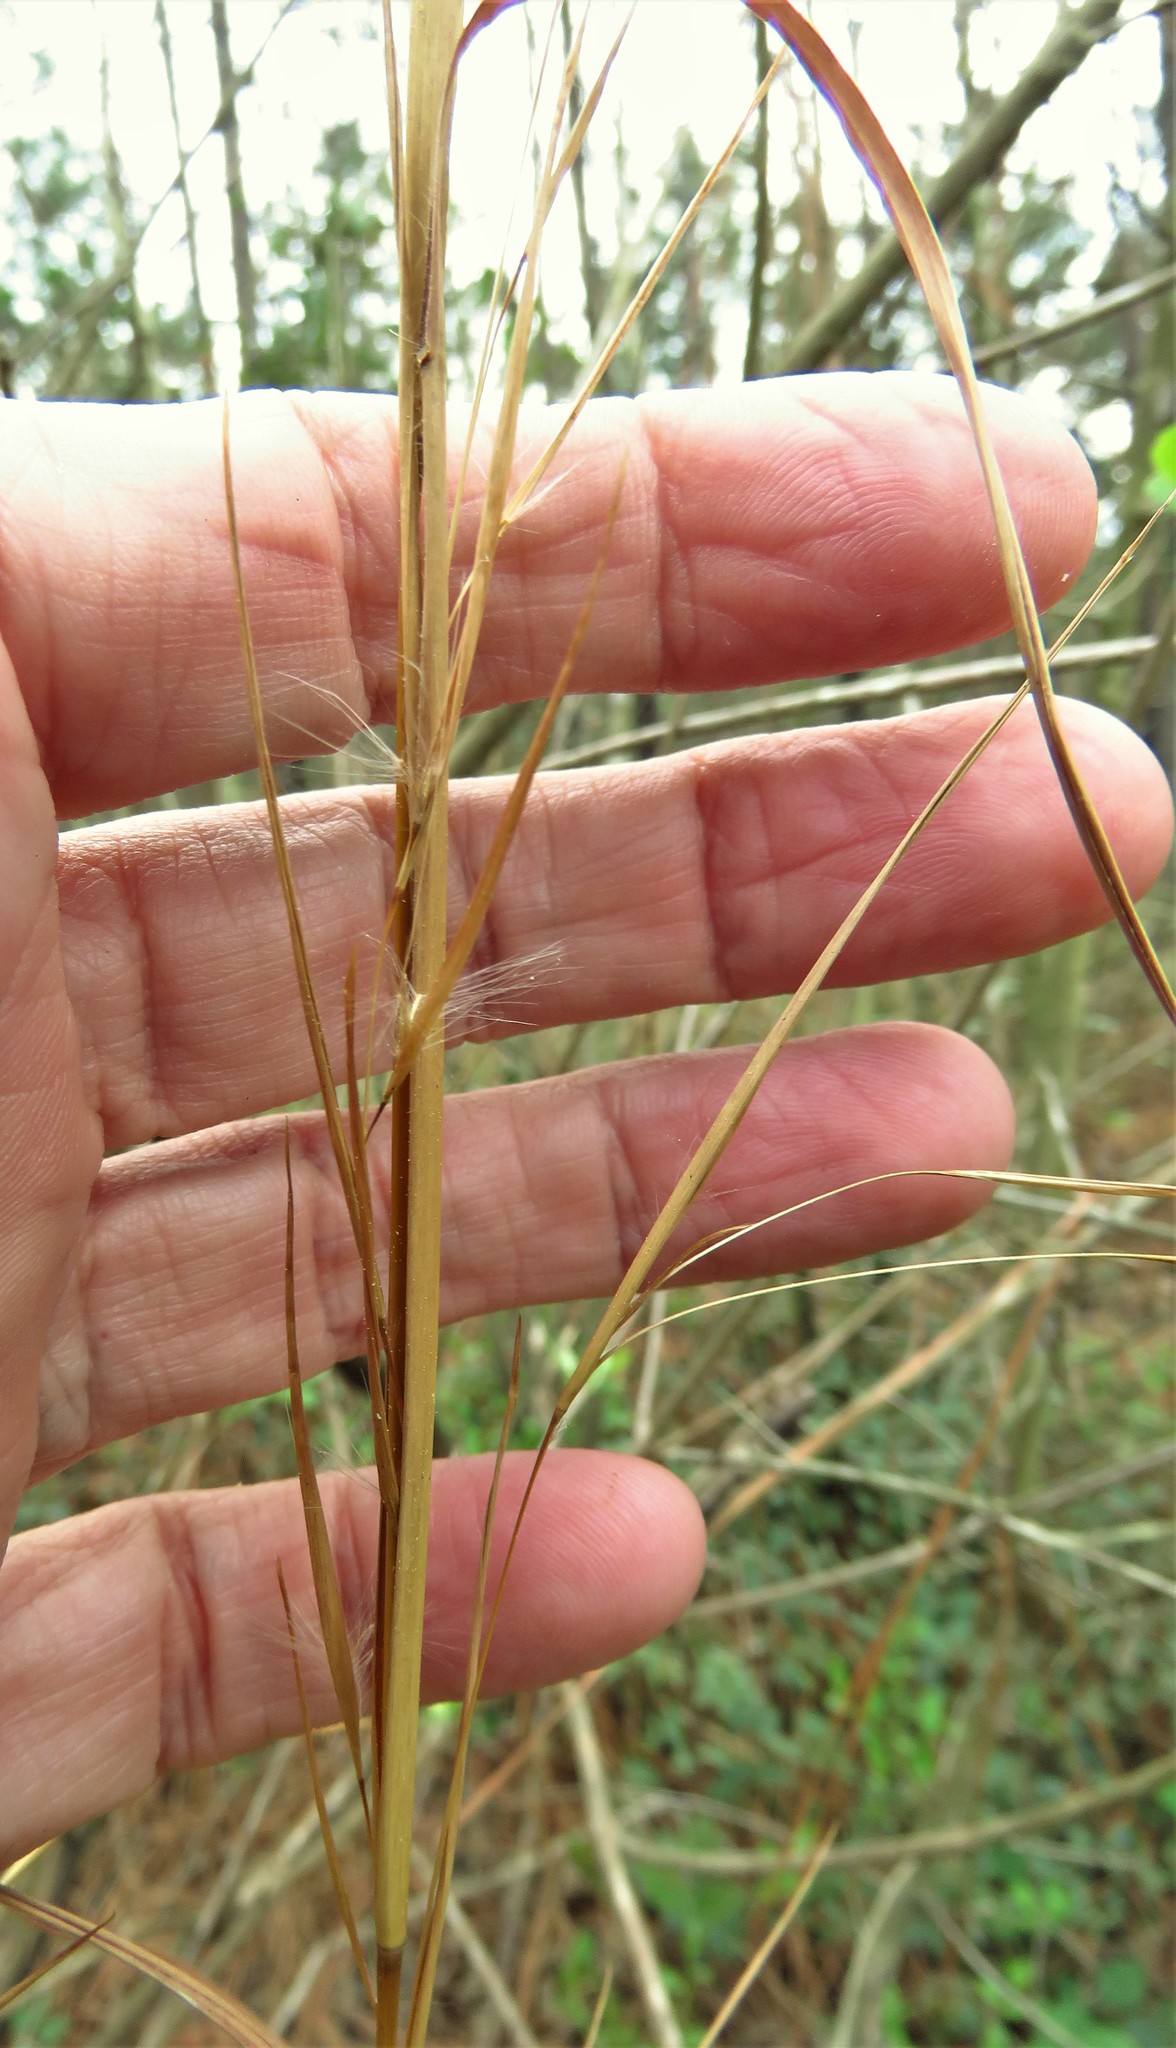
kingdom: Plantae
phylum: Tracheophyta
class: Liliopsida
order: Poales
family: Poaceae
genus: Andropogon
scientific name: Andropogon virginicus
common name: Broomsedge bluestem
